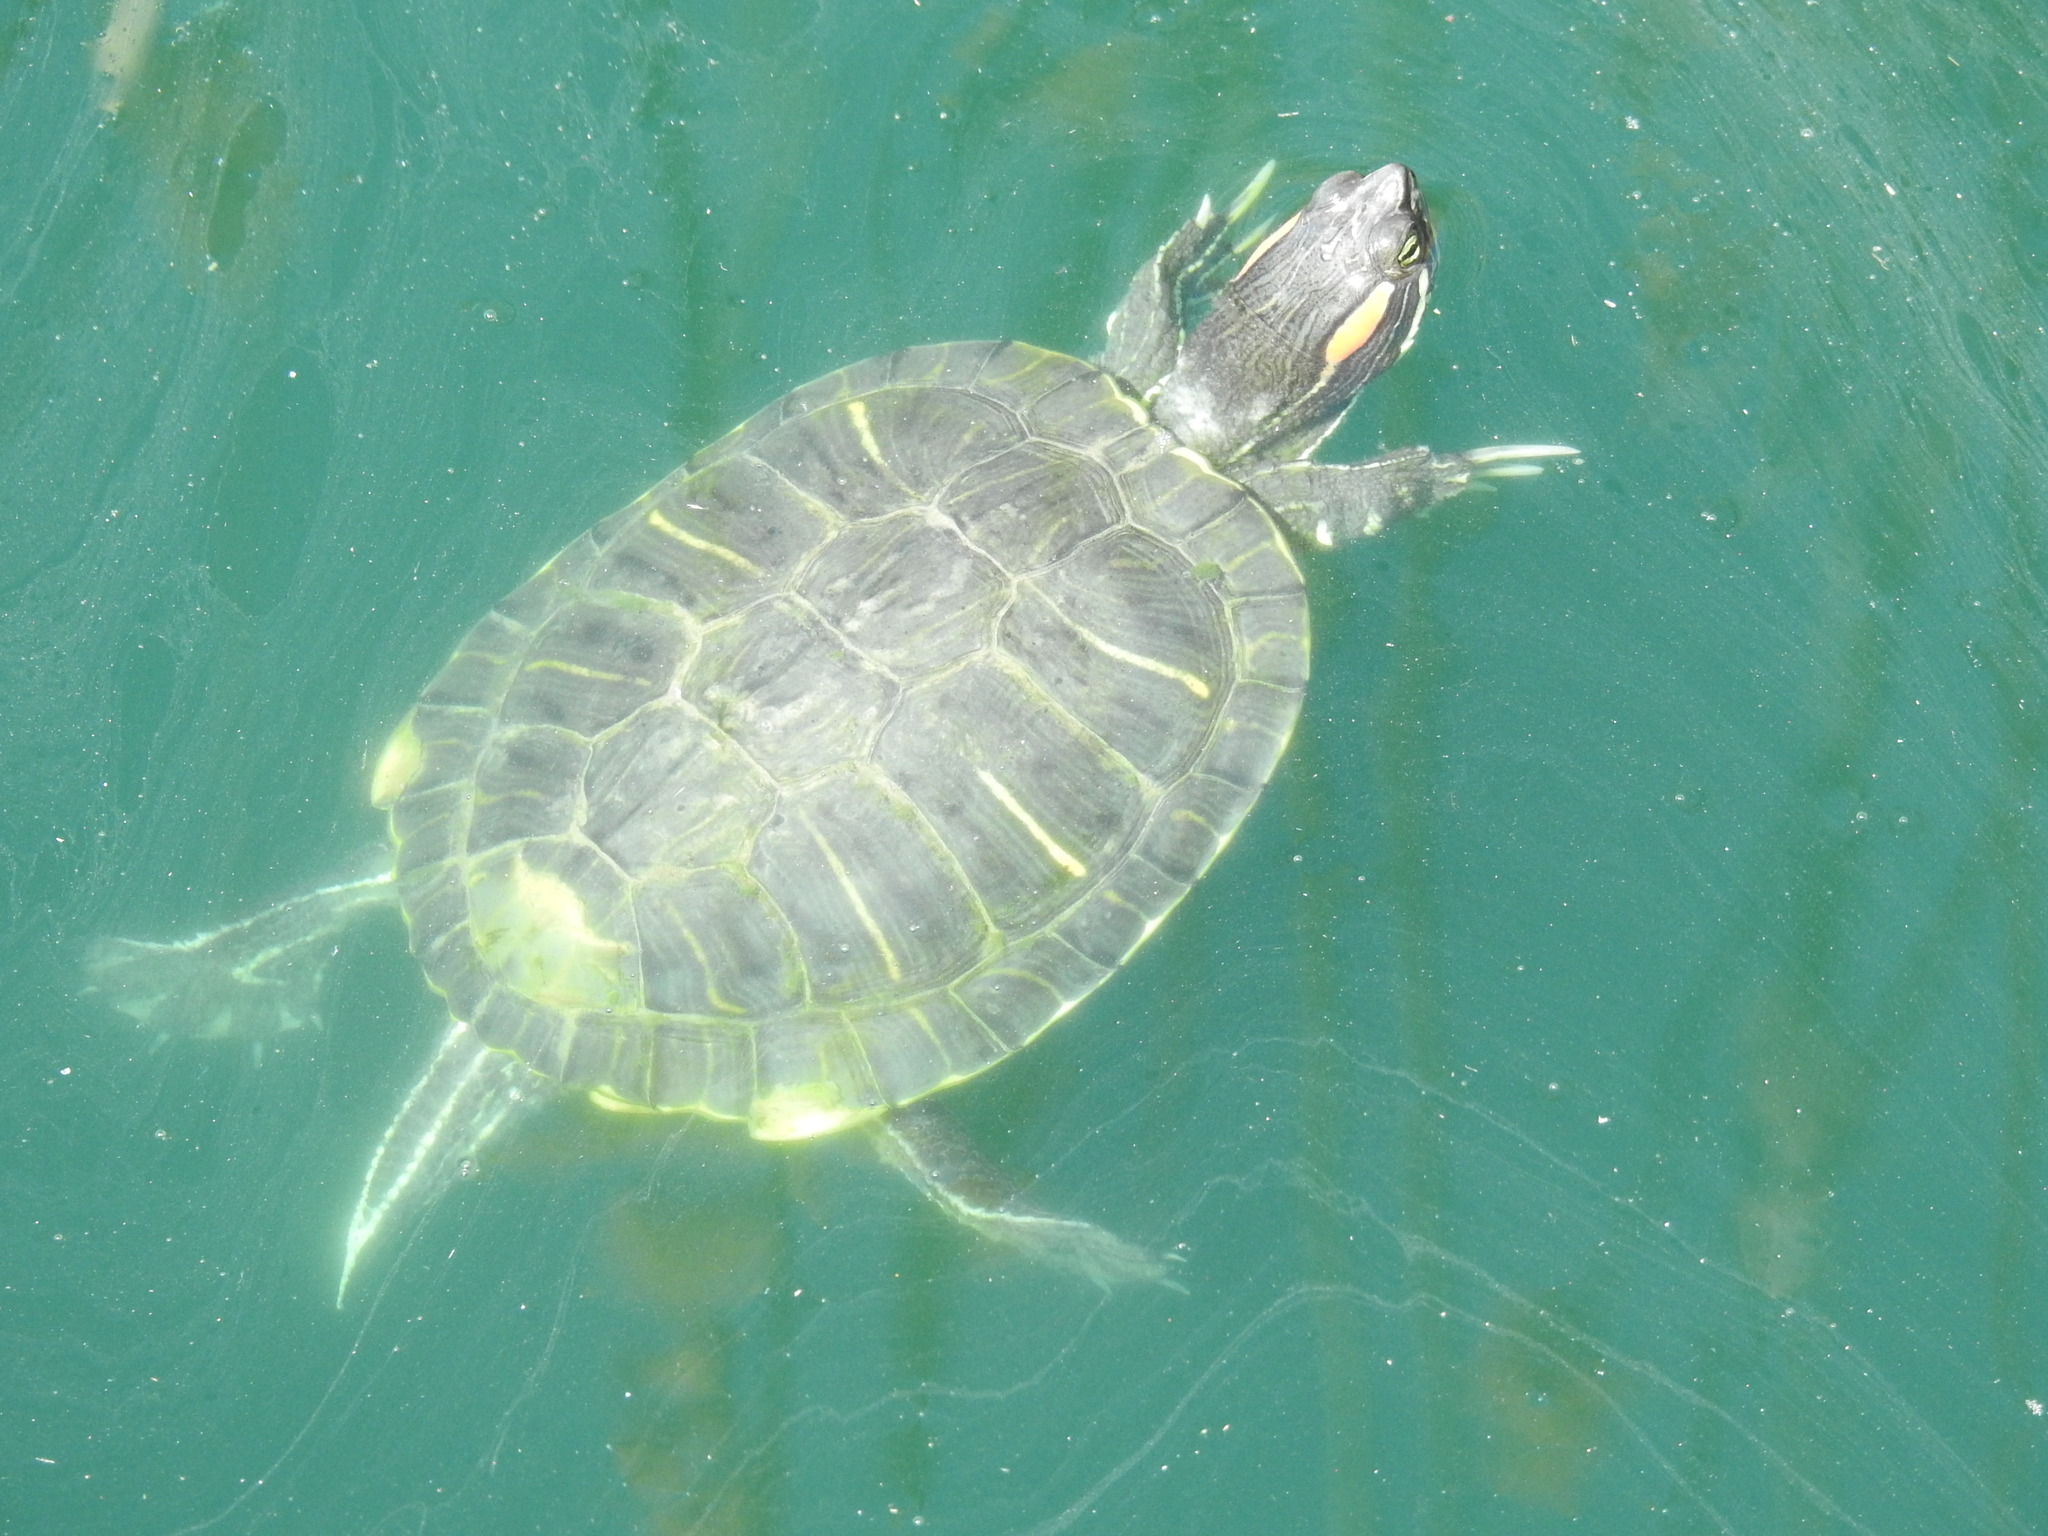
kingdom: Animalia
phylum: Chordata
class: Testudines
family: Emydidae
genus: Trachemys
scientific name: Trachemys scripta
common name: Slider
